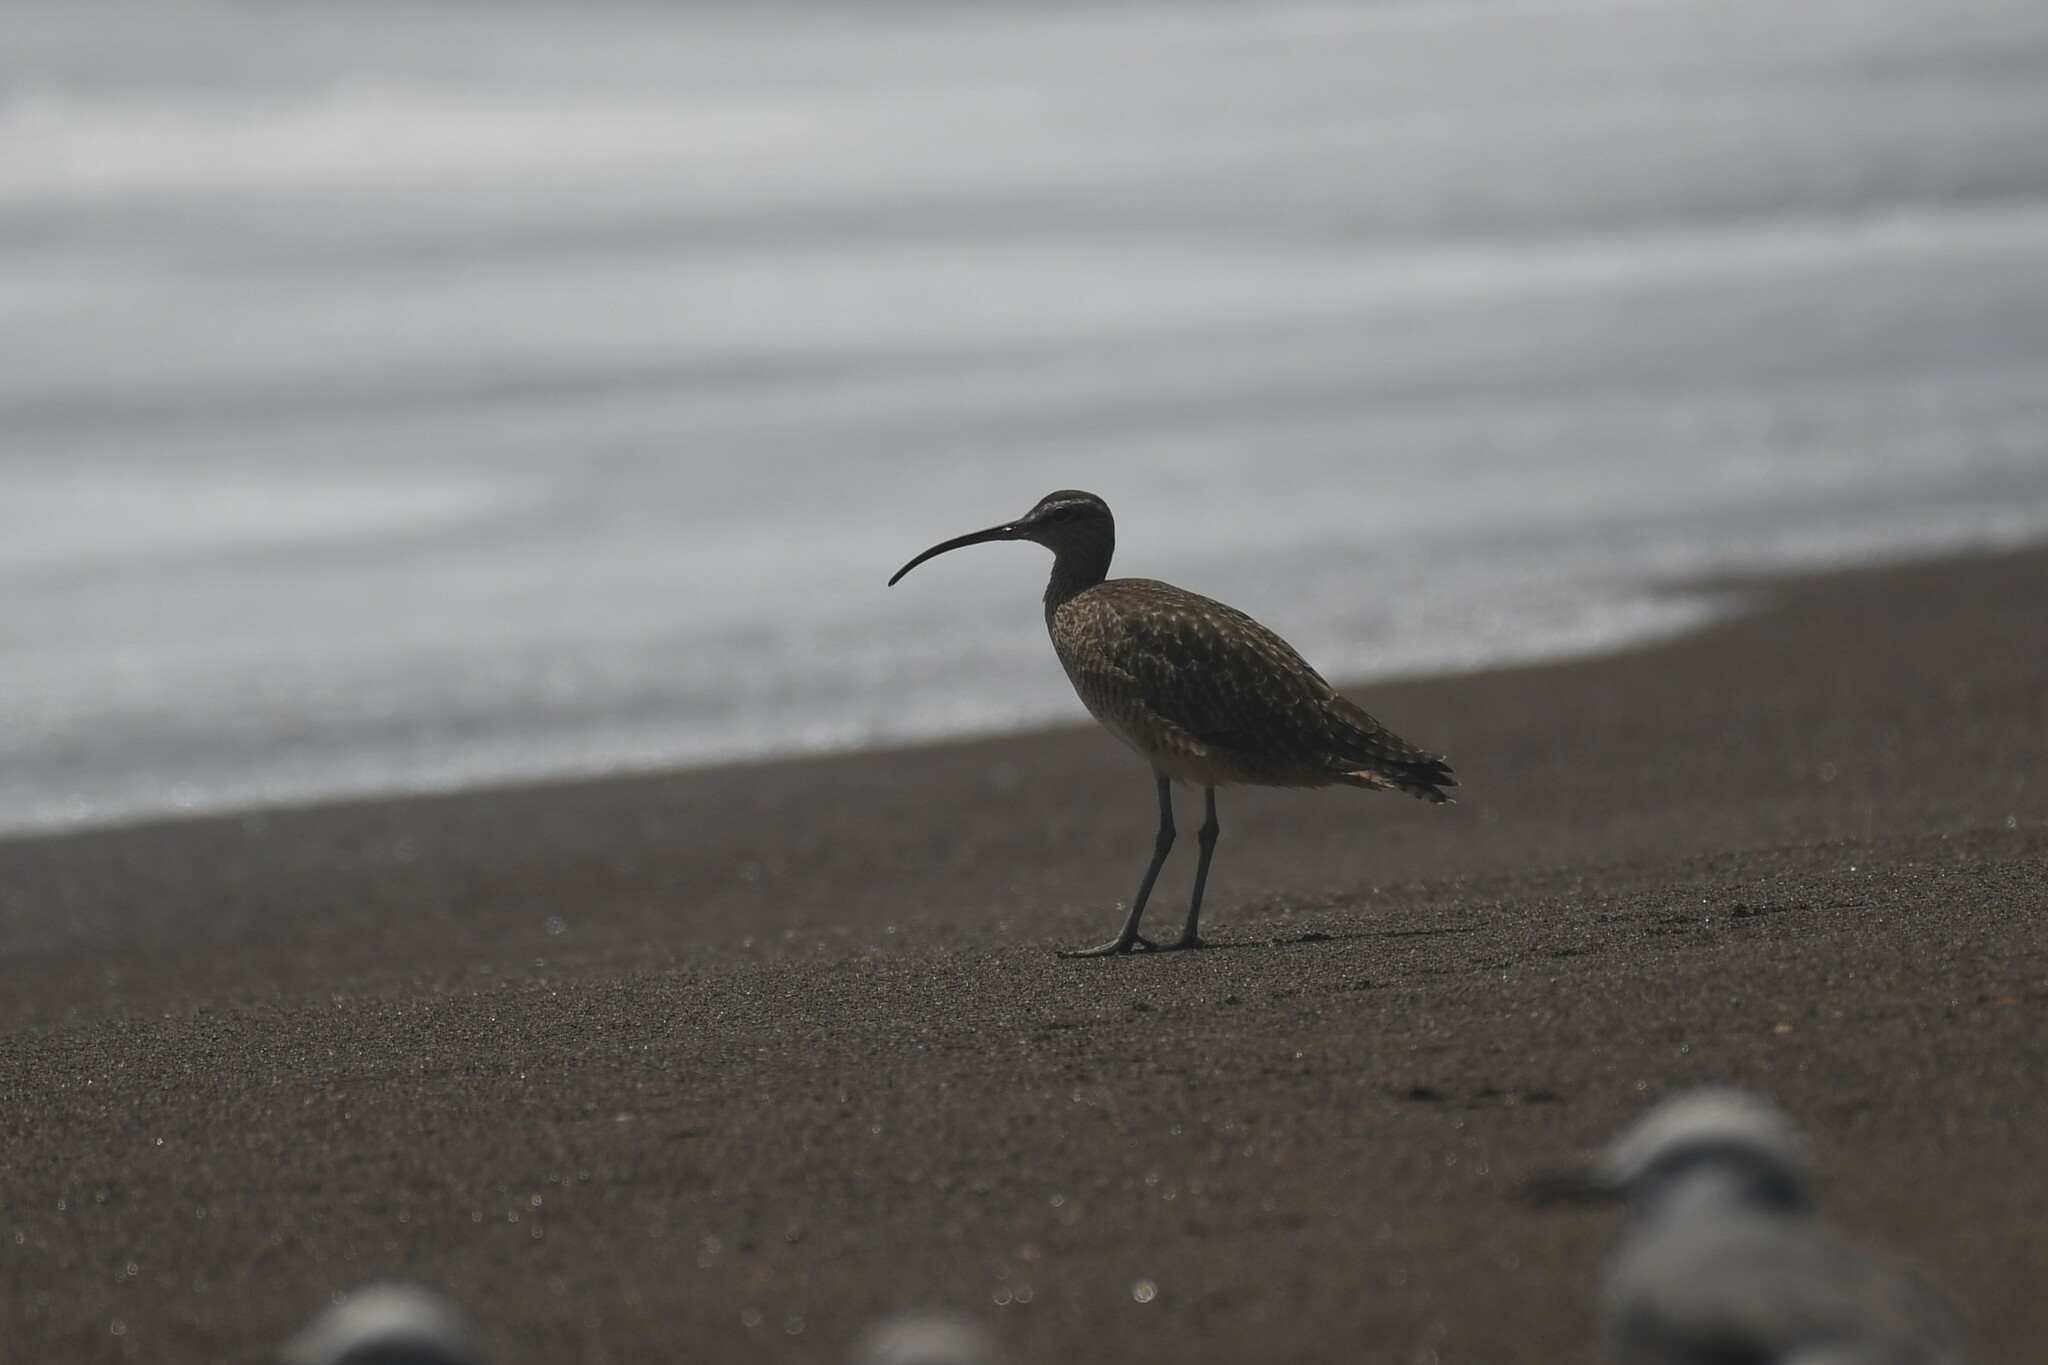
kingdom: Animalia
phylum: Chordata
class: Aves
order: Charadriiformes
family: Scolopacidae
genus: Numenius
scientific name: Numenius phaeopus
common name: Whimbrel
